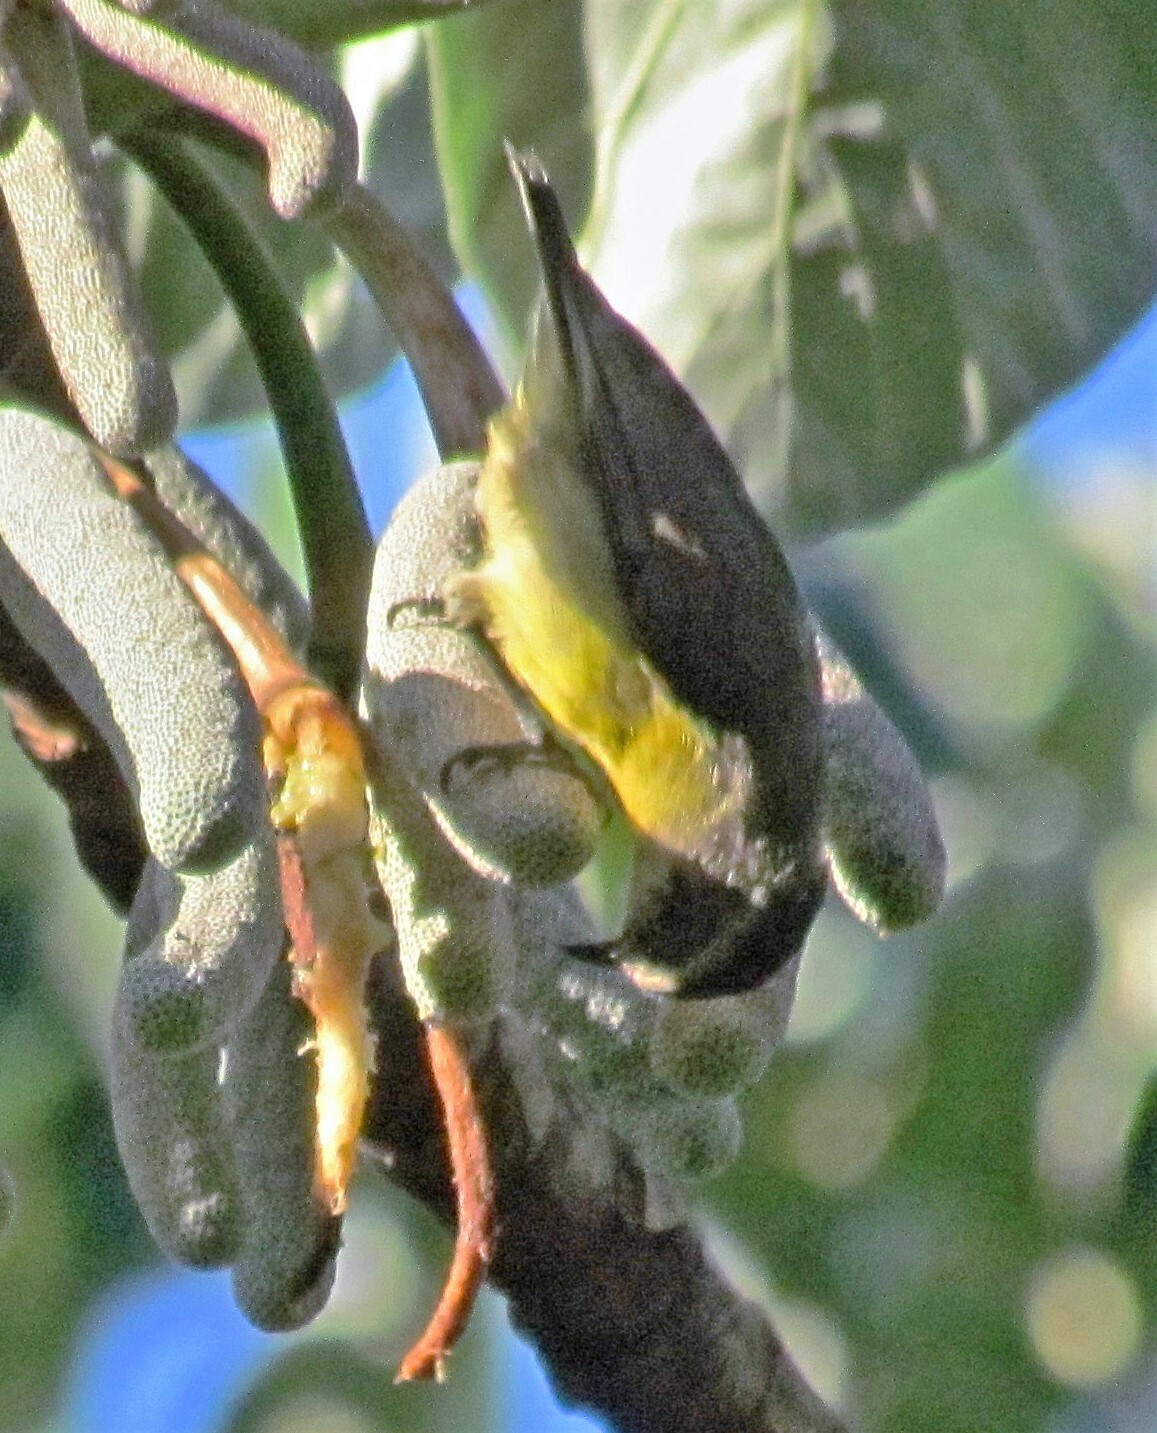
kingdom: Animalia
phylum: Chordata
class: Aves
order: Passeriformes
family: Thraupidae
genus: Coereba
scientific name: Coereba flaveola
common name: Bananaquit
